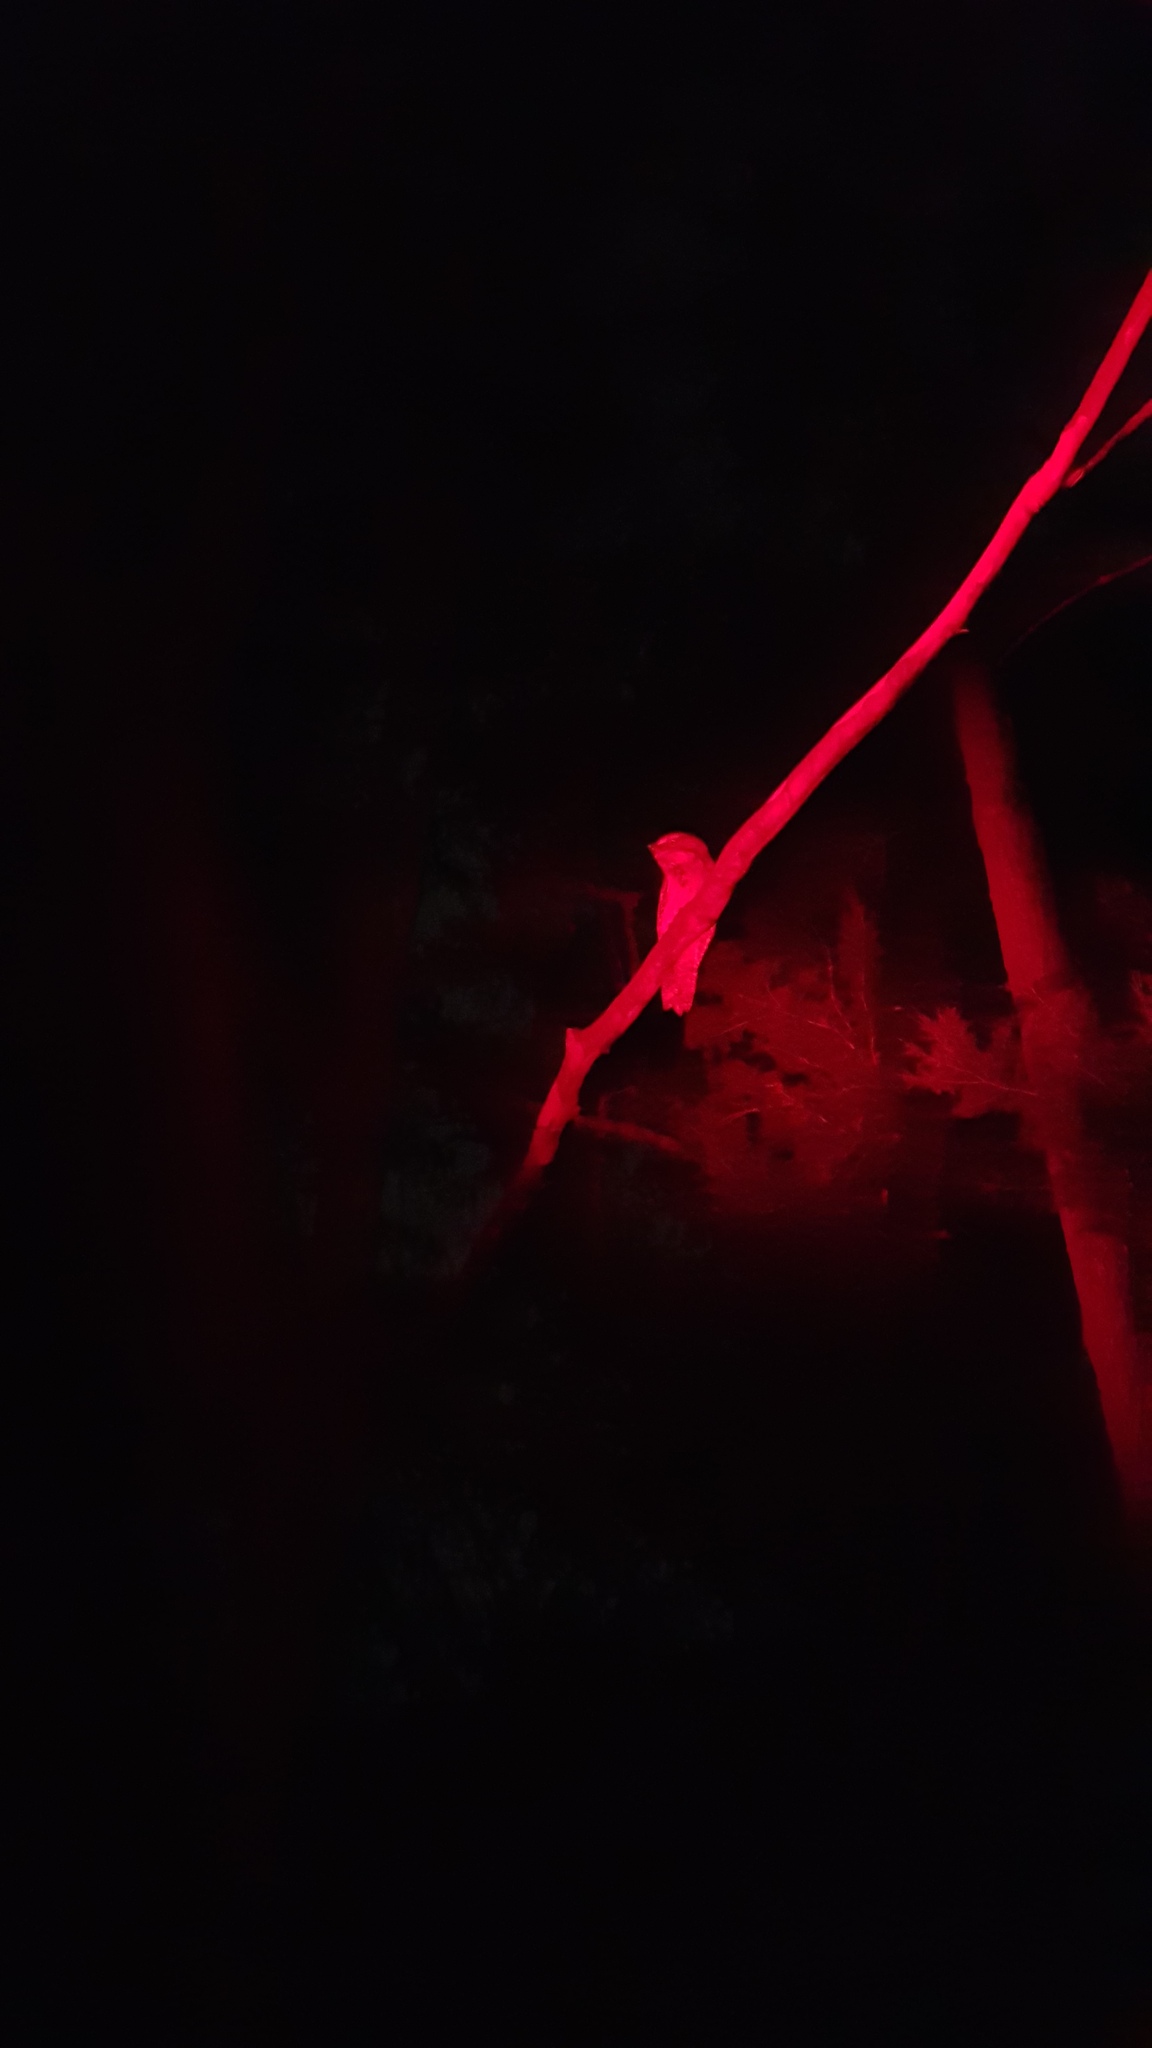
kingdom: Animalia
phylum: Chordata
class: Aves
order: Caprimulgiformes
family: Podargidae
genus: Podargus
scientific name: Podargus strigoides
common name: Tawny frogmouth
